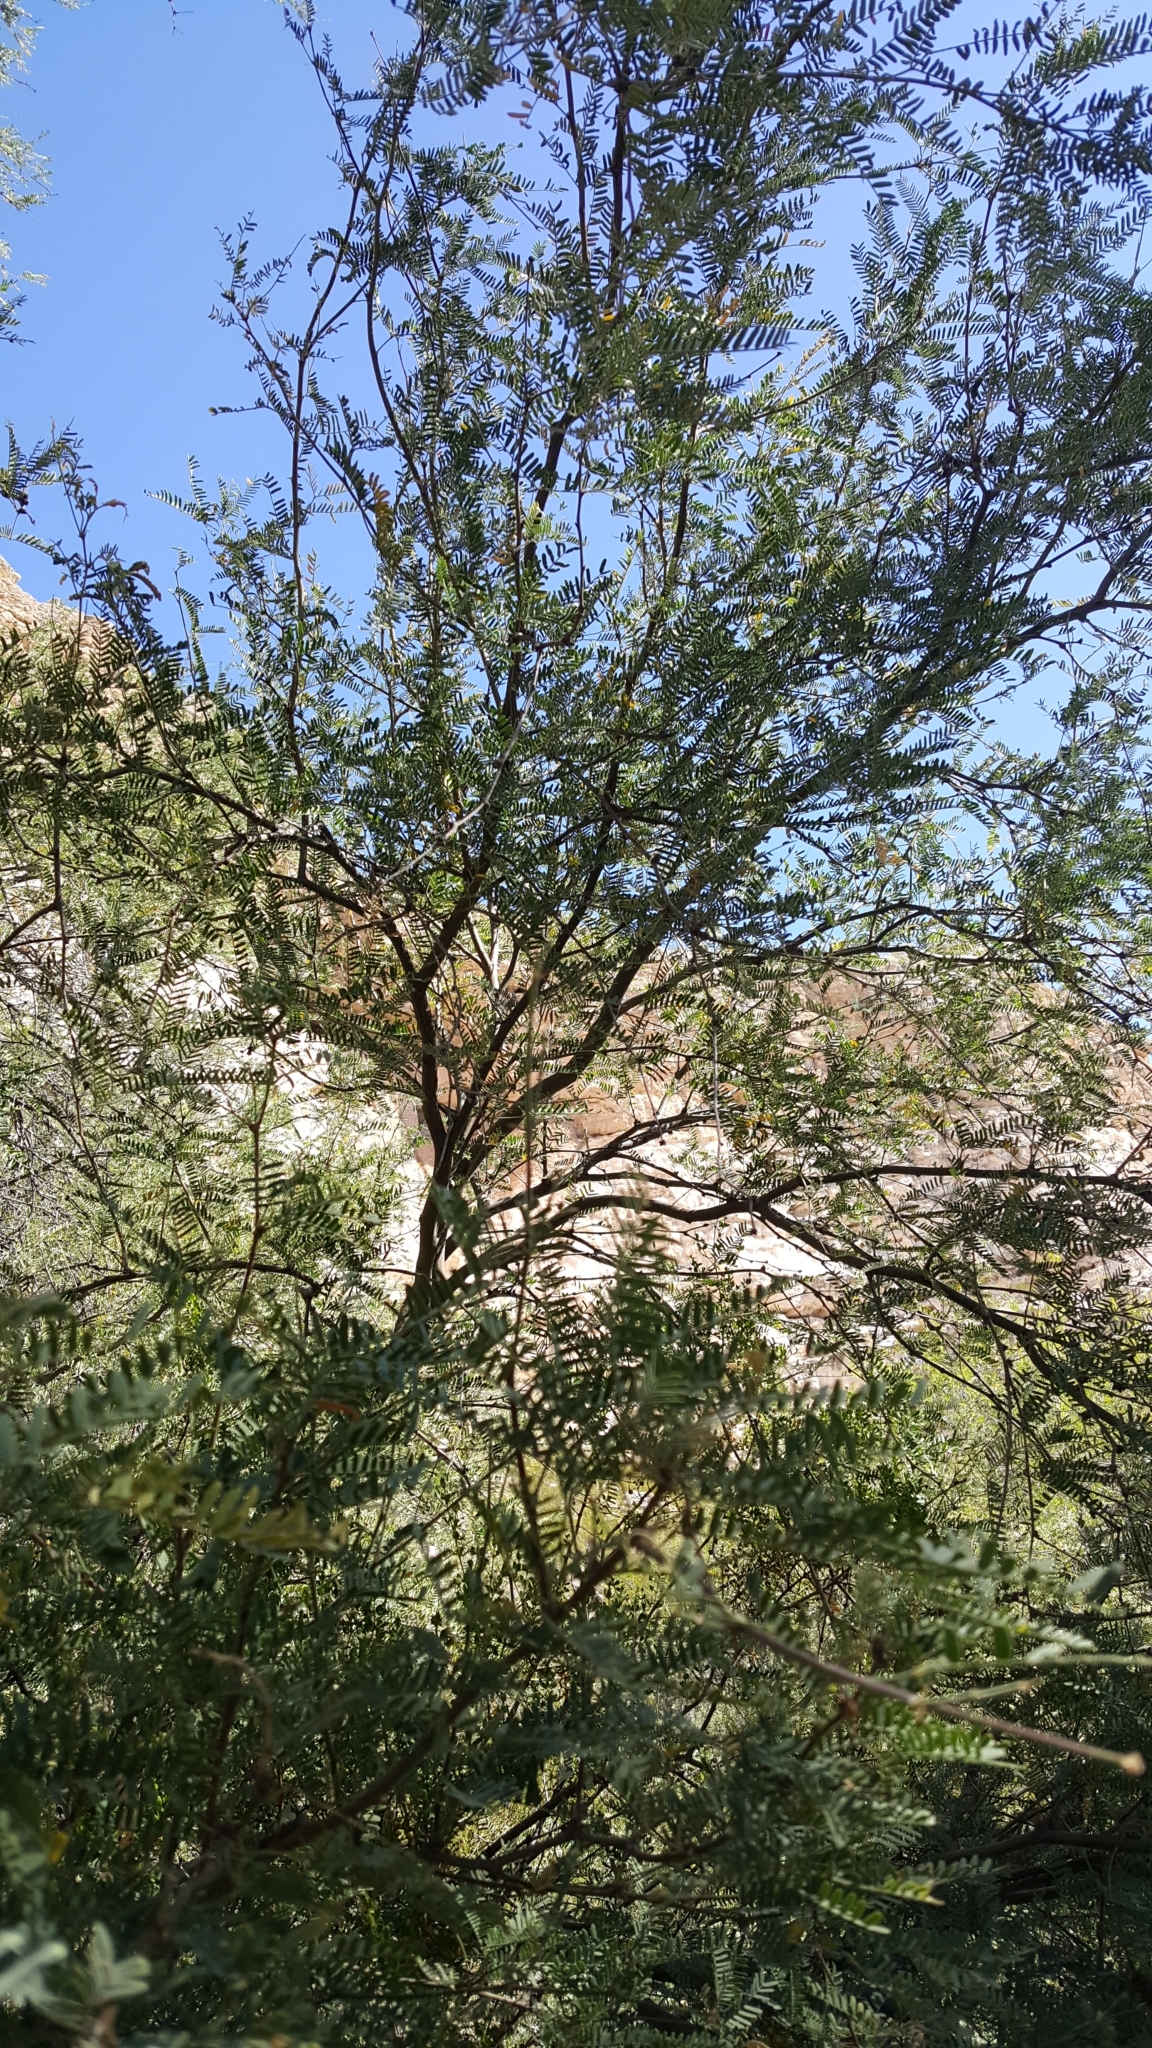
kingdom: Plantae
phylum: Tracheophyta
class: Magnoliopsida
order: Fabales
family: Fabaceae
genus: Prosopis
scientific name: Prosopis velutina
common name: Velvet mesquite
